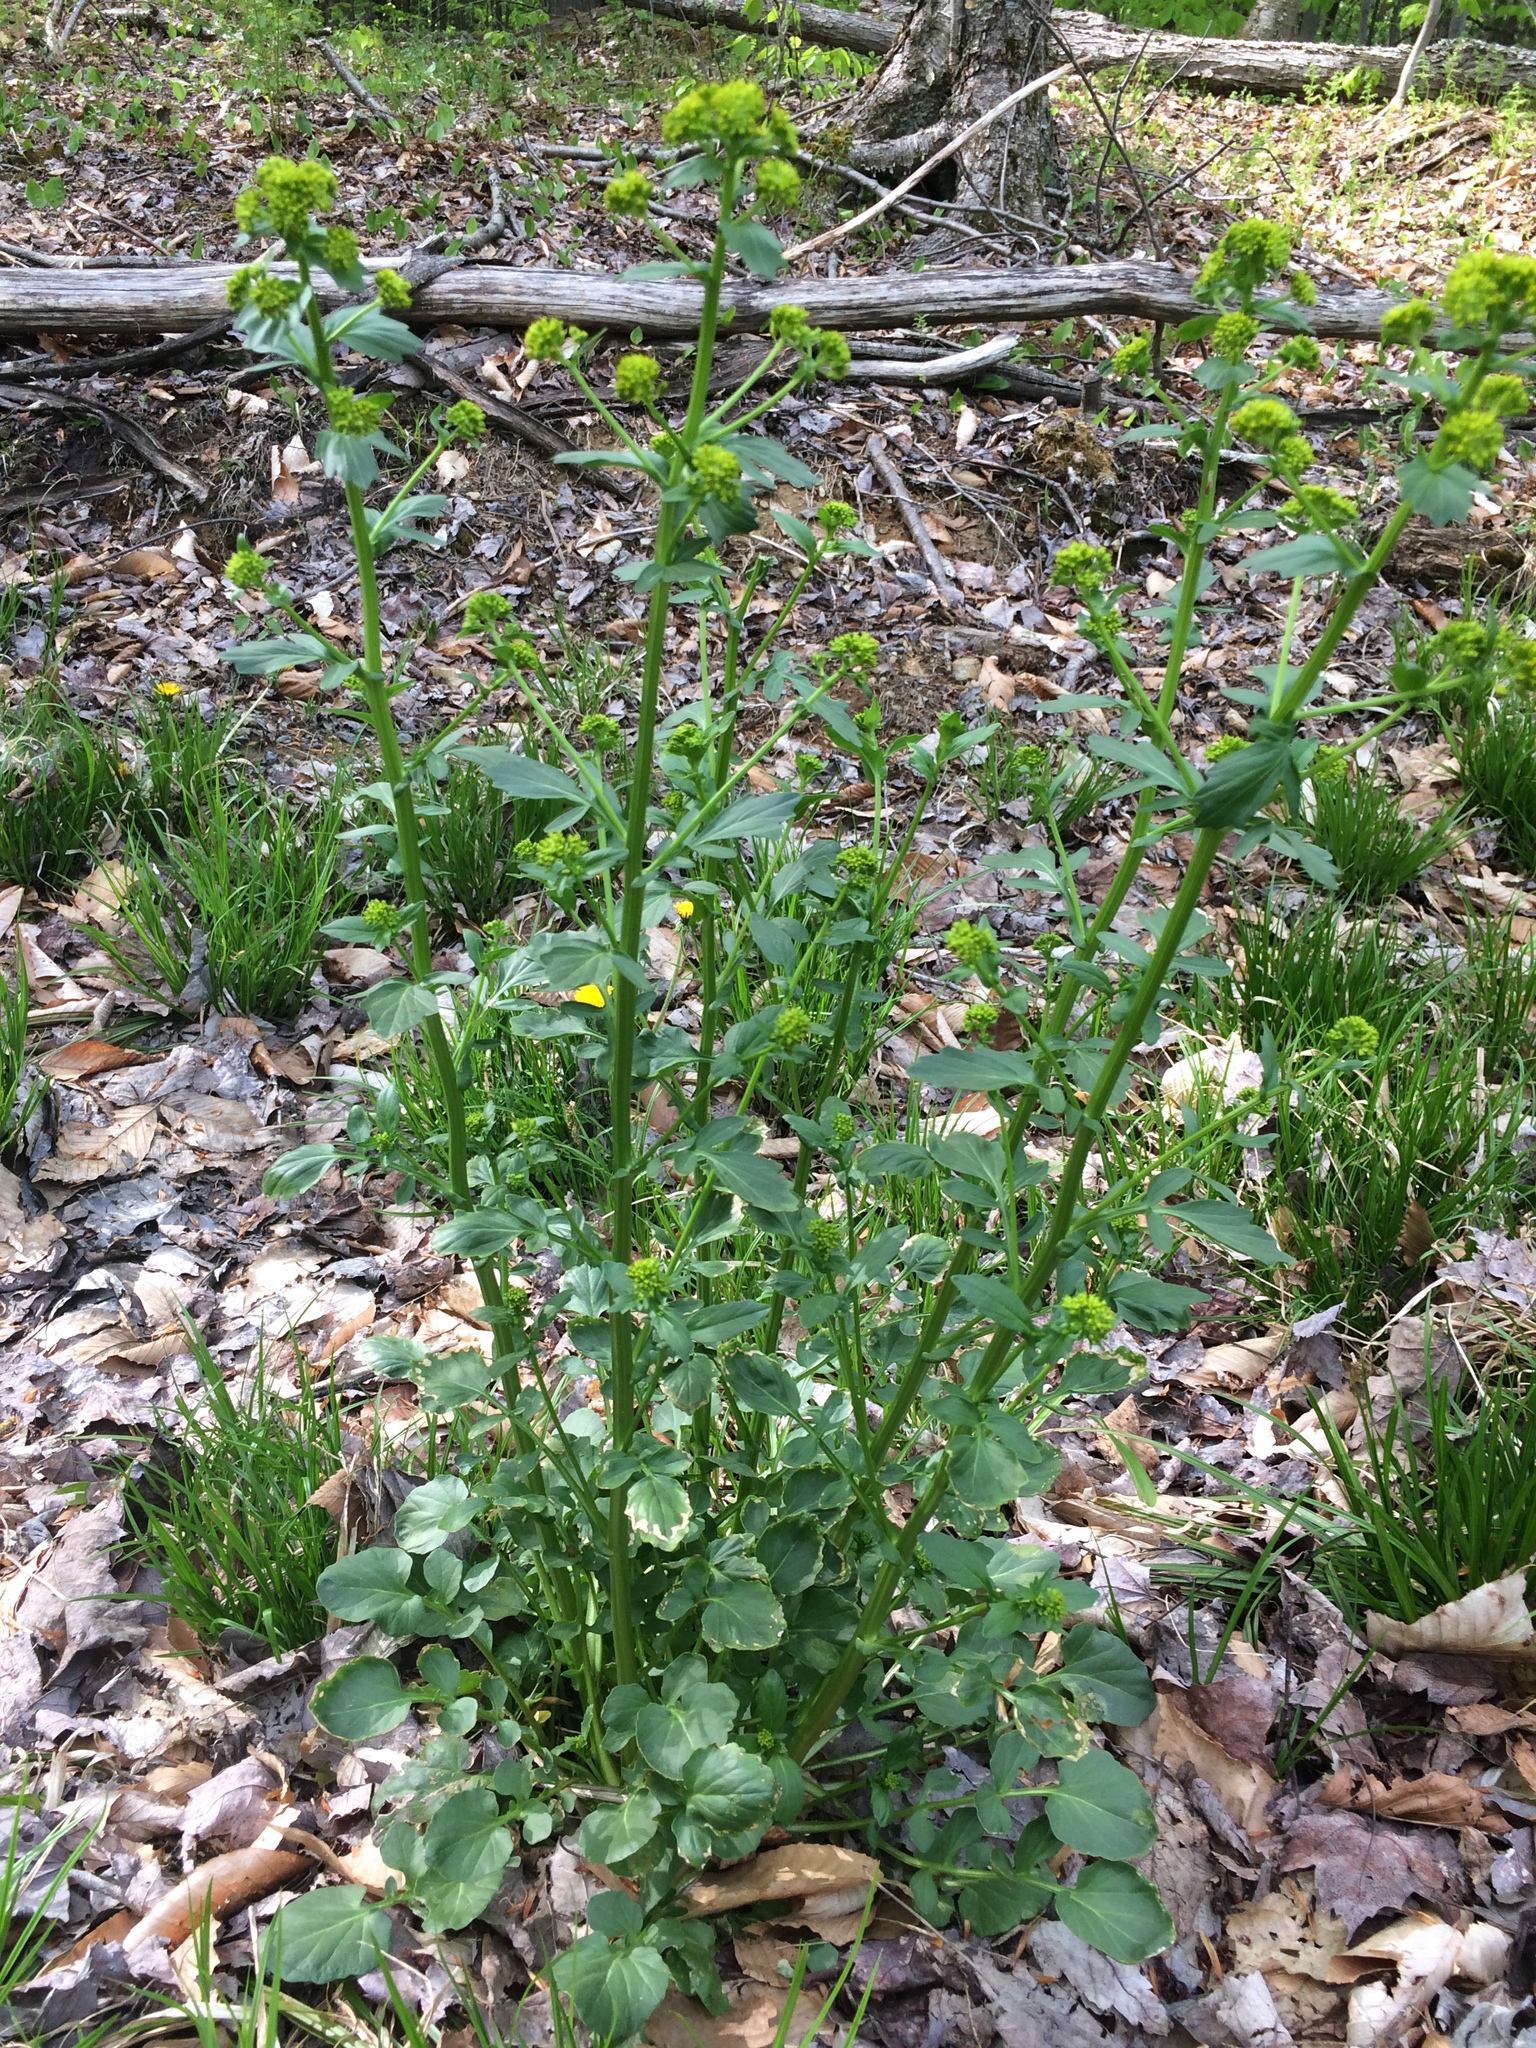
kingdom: Plantae
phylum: Tracheophyta
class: Magnoliopsida
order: Brassicales
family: Brassicaceae
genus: Barbarea
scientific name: Barbarea vulgaris
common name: Cressy-greens
